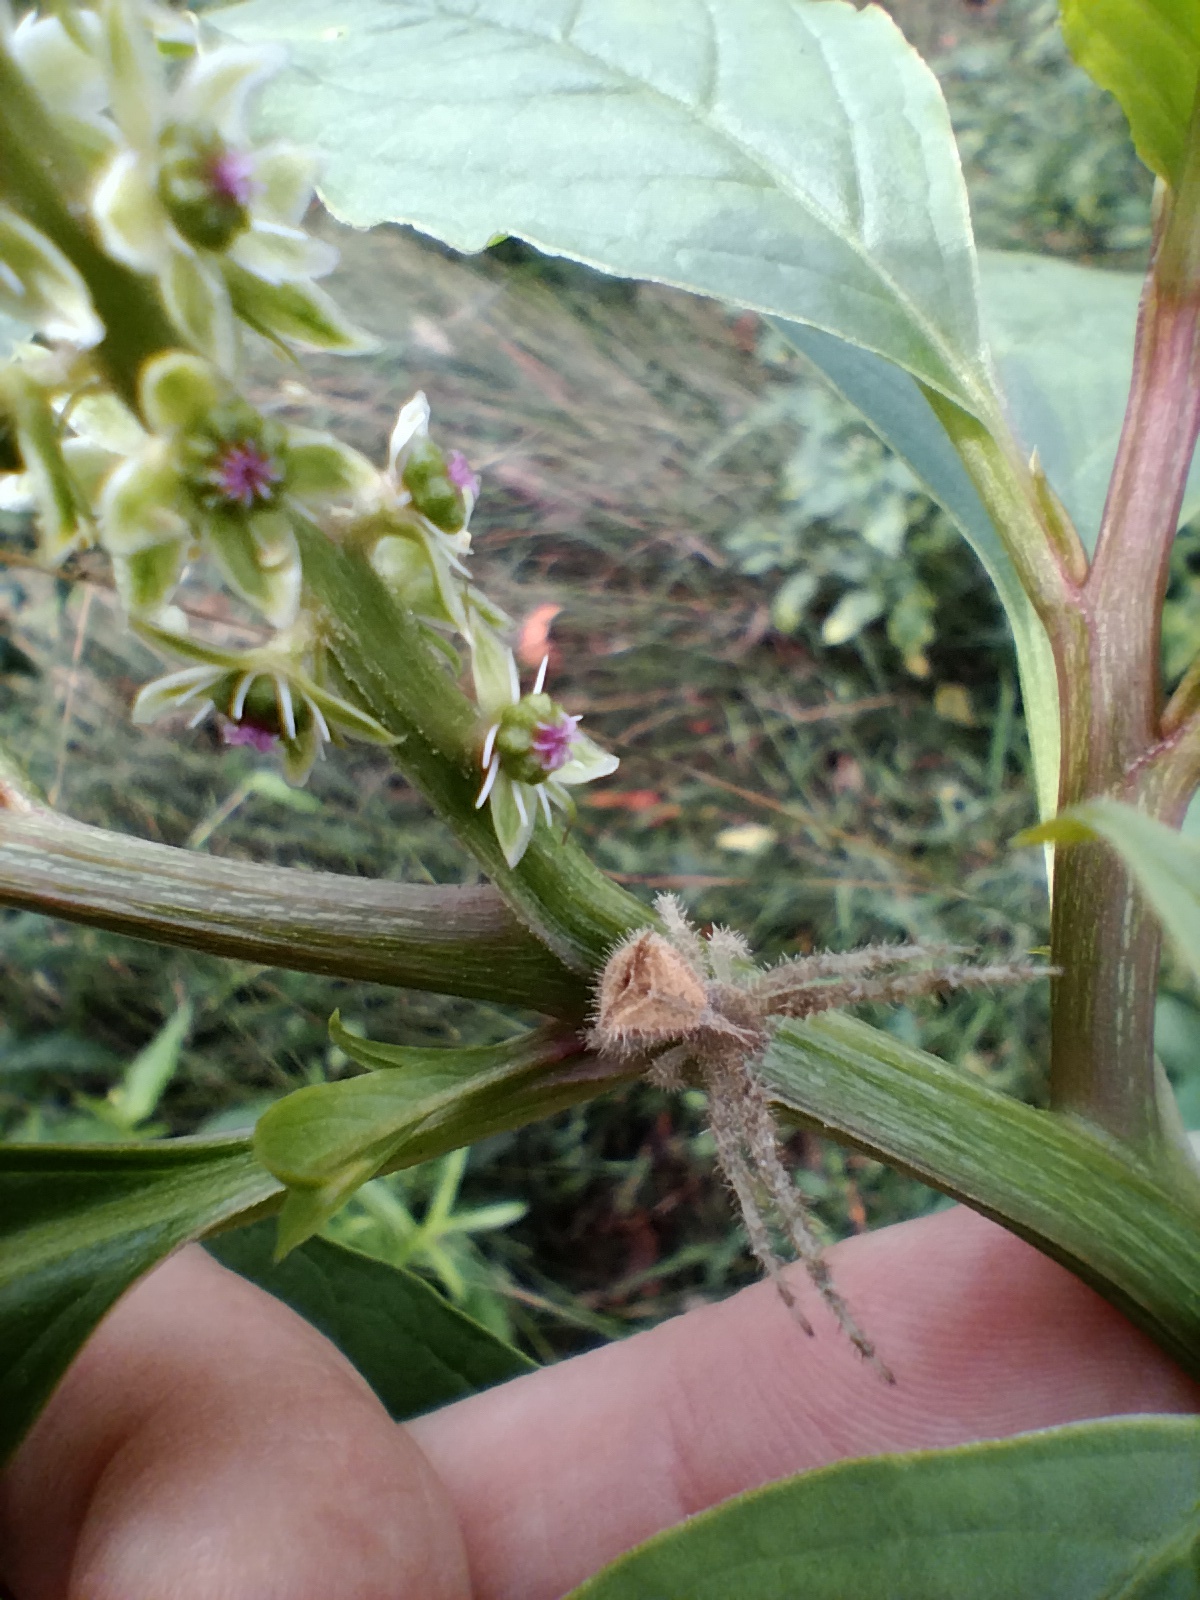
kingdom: Animalia
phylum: Arthropoda
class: Arachnida
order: Araneae
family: Thomisidae
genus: Sidymella
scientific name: Sidymella hirsuta
